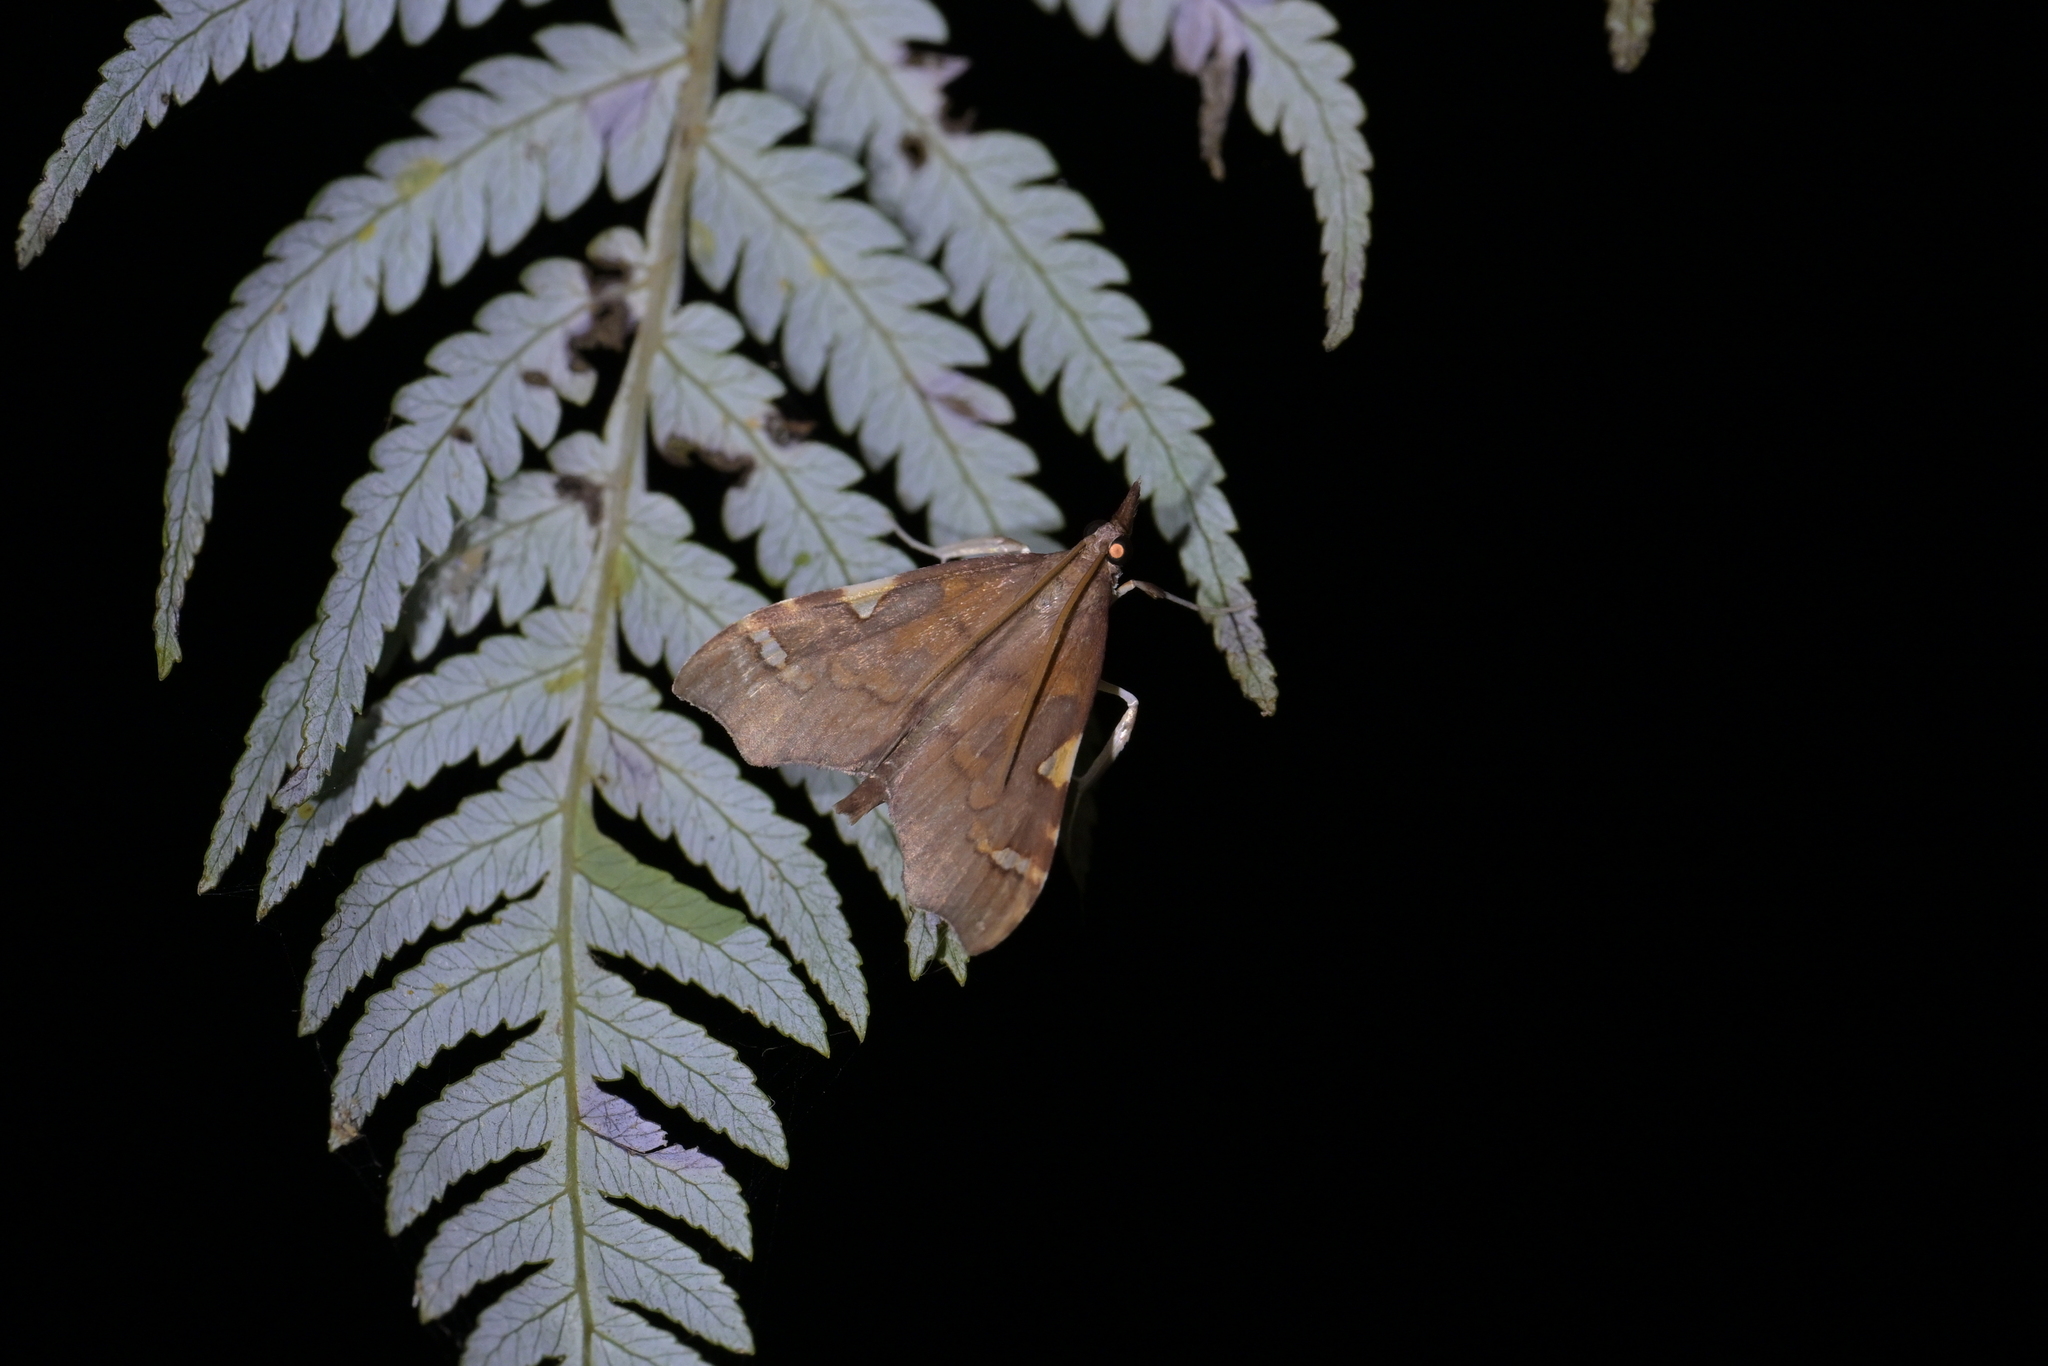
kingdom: Animalia
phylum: Arthropoda
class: Insecta
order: Lepidoptera
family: Crambidae
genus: Deana
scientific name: Deana hybreasalis
